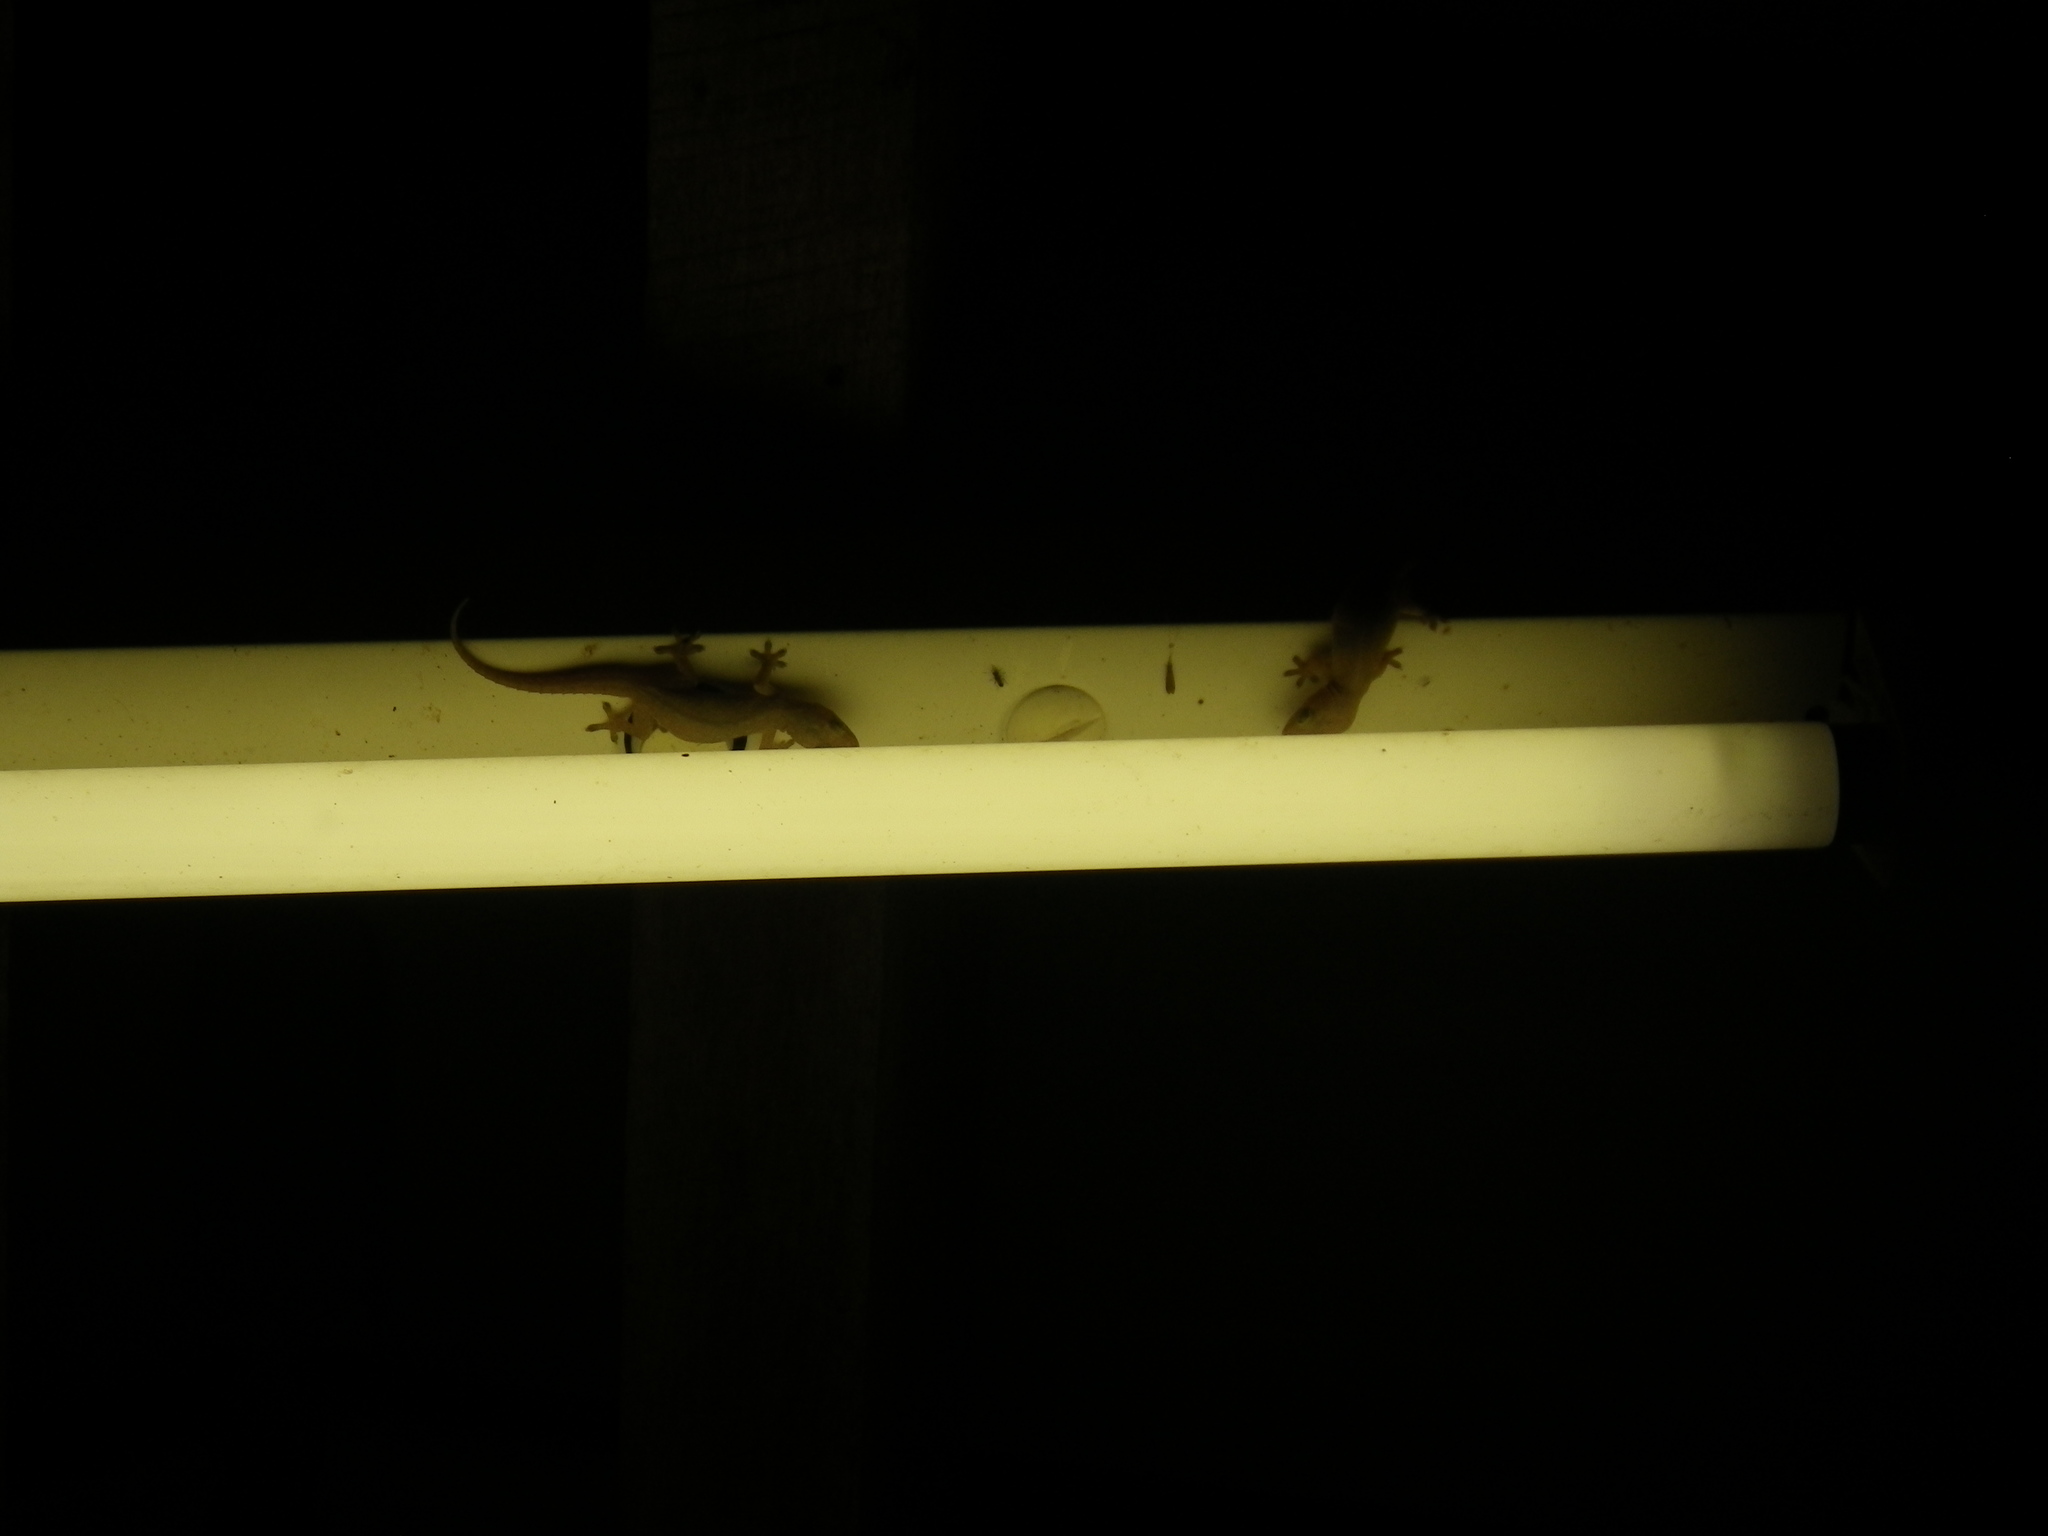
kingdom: Animalia
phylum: Chordata
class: Squamata
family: Gekkonidae
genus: Hemidactylus
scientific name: Hemidactylus frenatus
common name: Common house gecko
